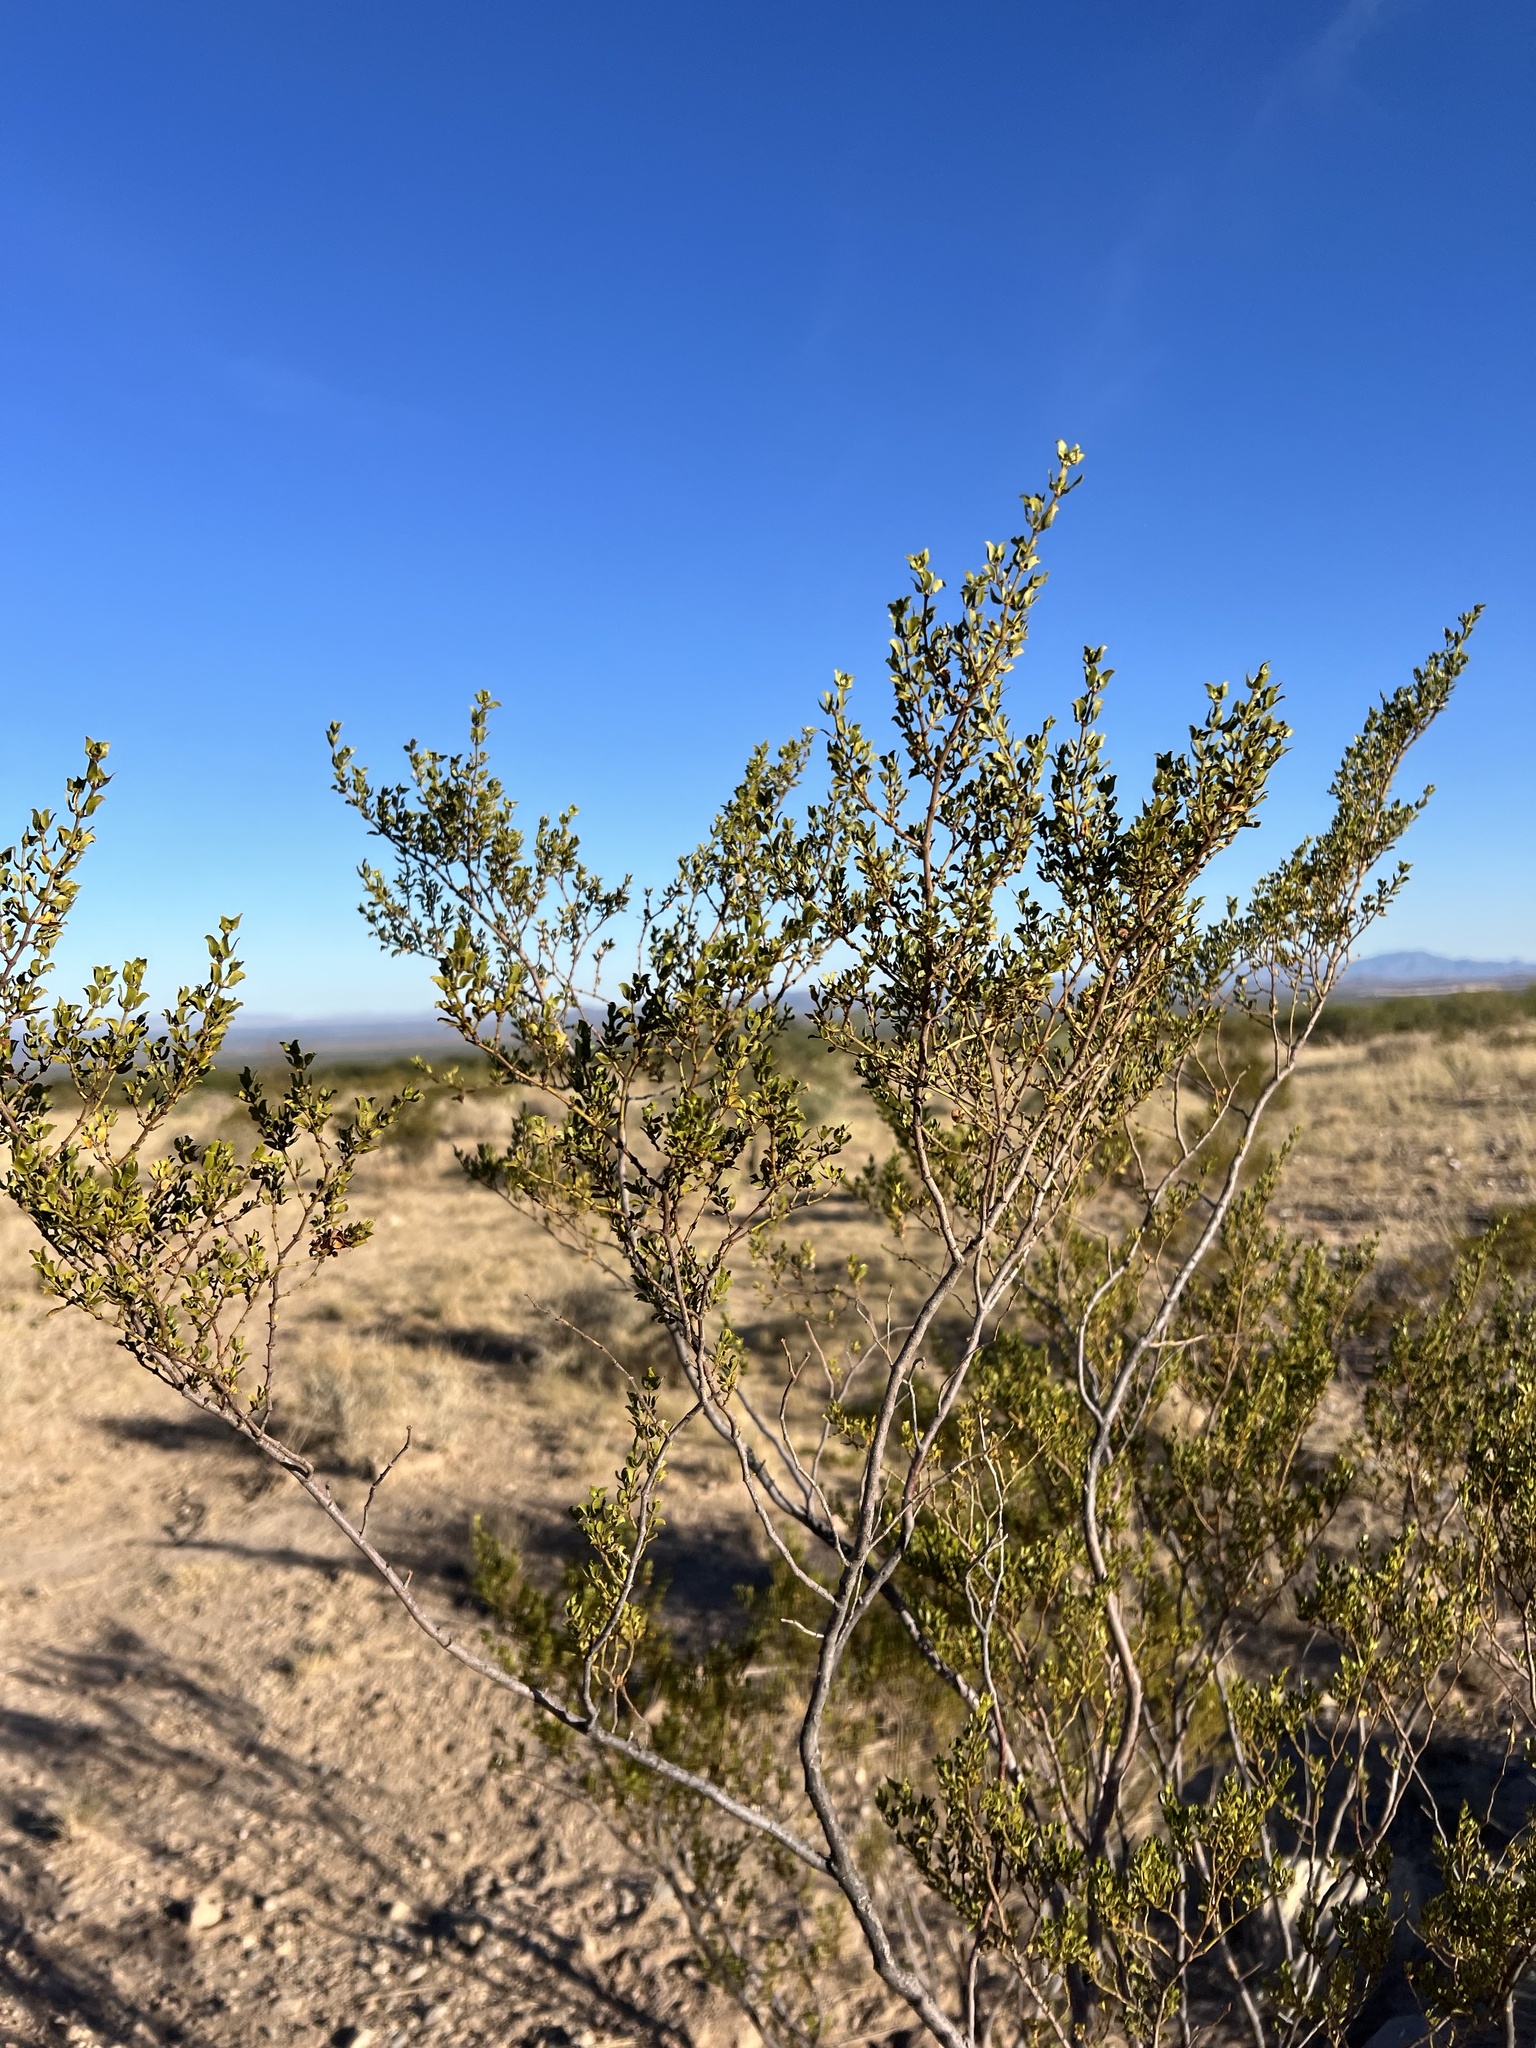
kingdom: Plantae
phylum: Tracheophyta
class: Magnoliopsida
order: Zygophyllales
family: Zygophyllaceae
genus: Larrea
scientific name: Larrea tridentata
